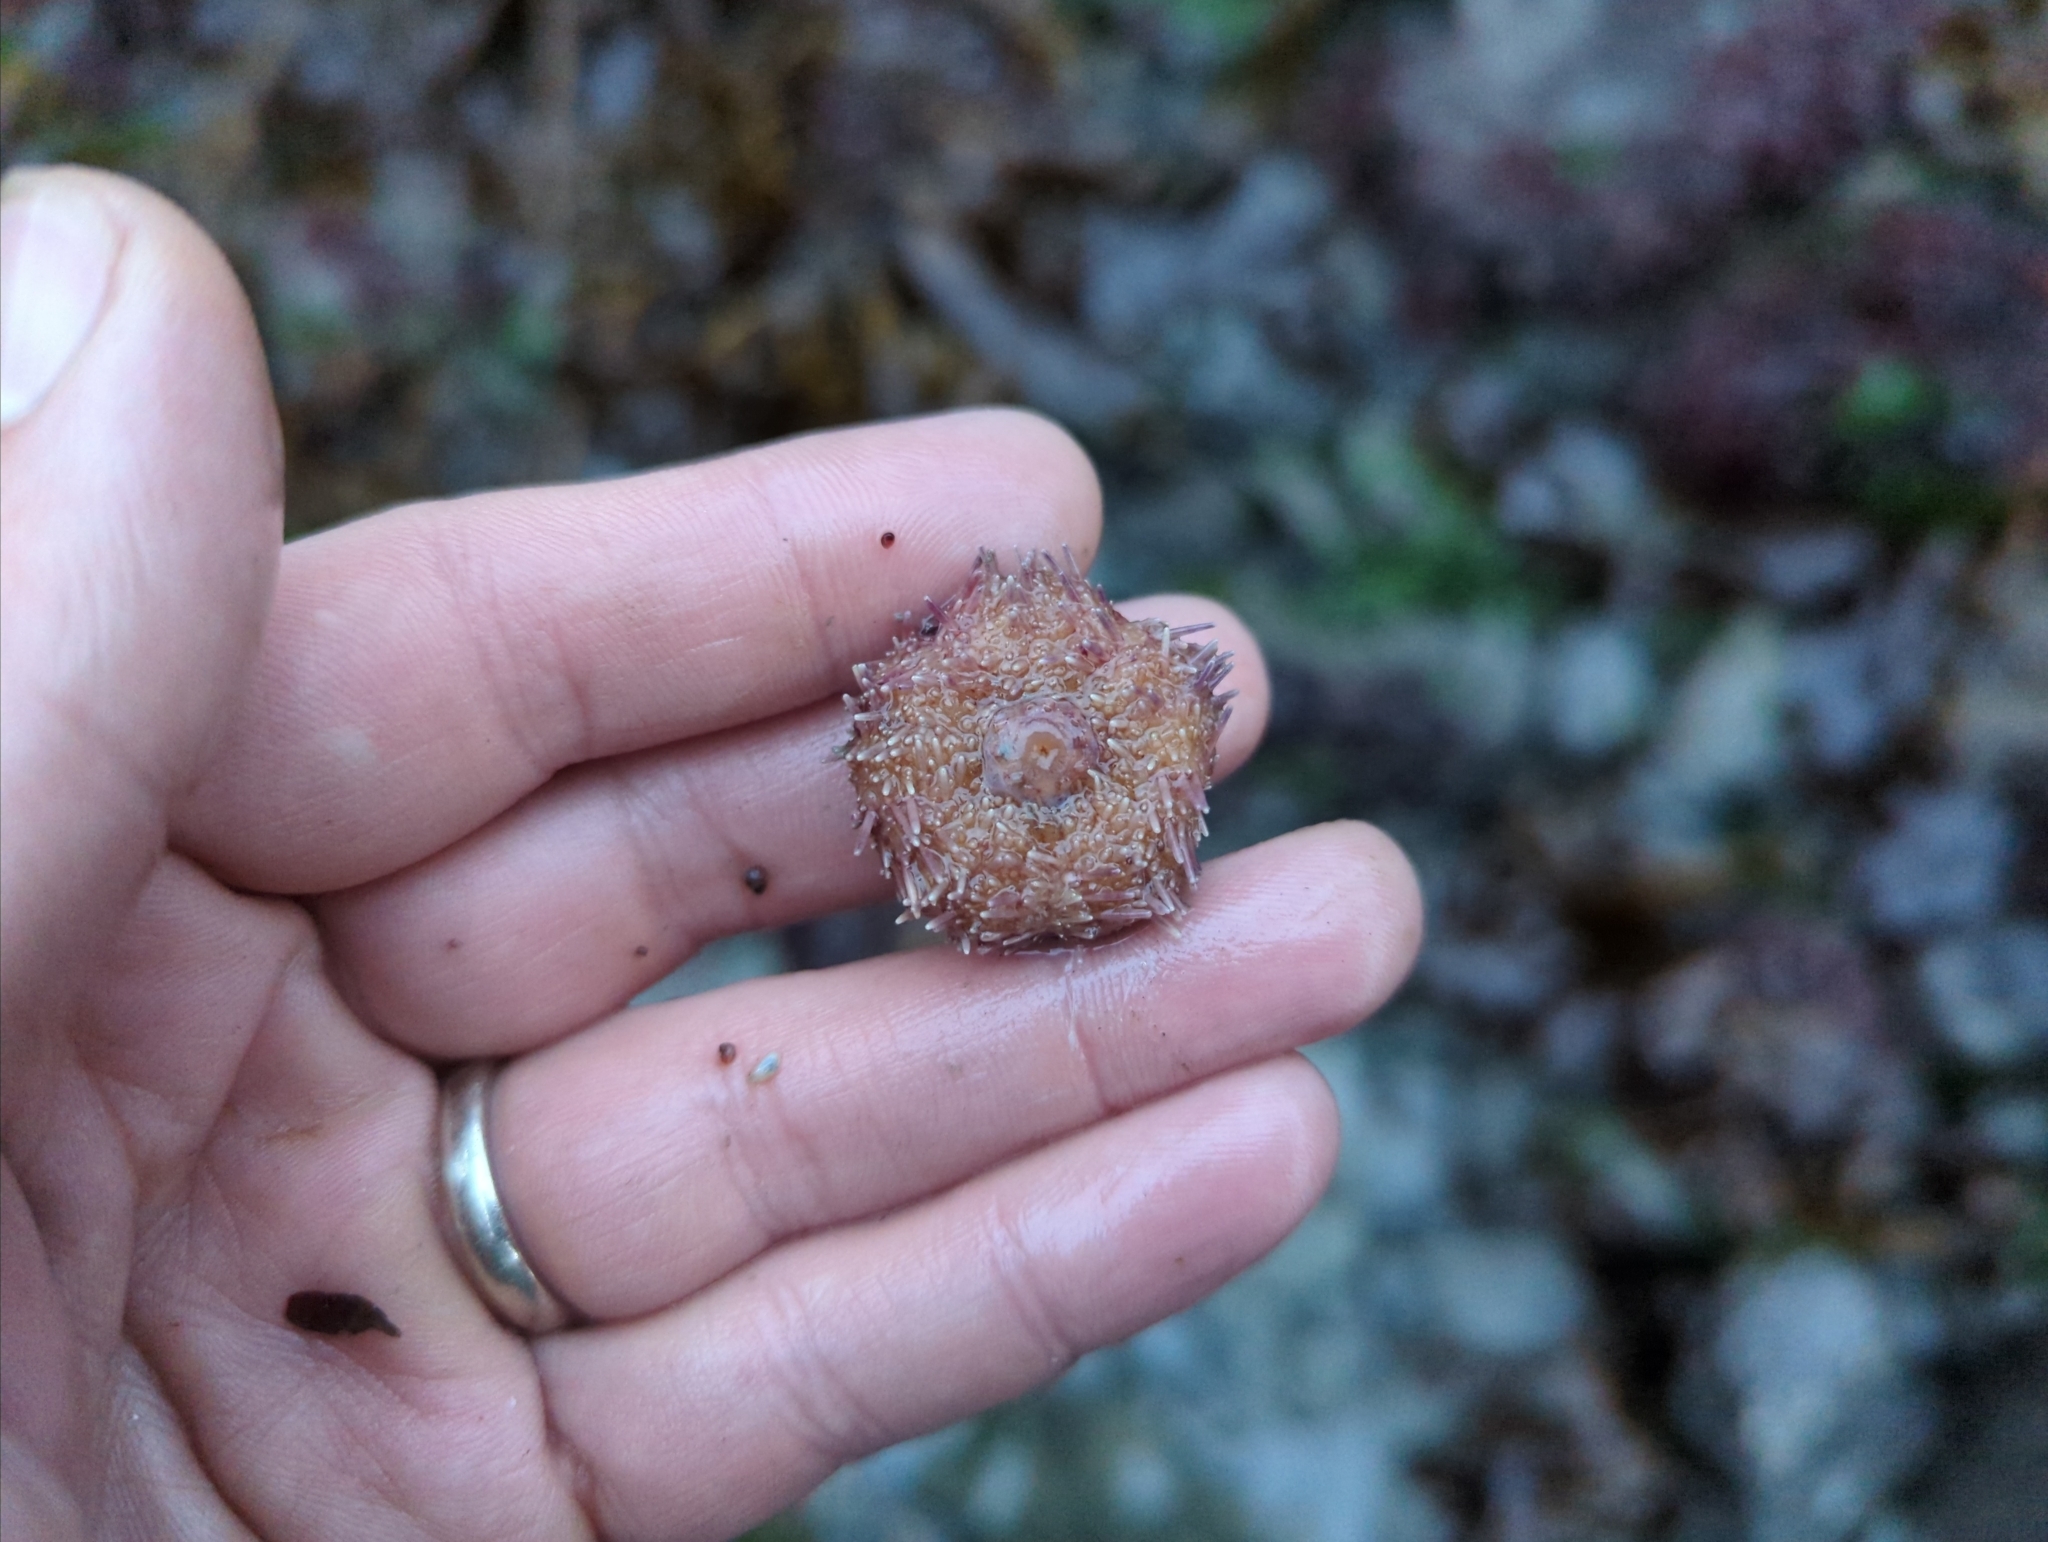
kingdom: Animalia
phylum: Echinodermata
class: Echinoidea
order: Camarodonta
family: Strongylocentrotidae
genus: Strongylocentrotus
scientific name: Strongylocentrotus droebachiensis
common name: Northern sea urchin
